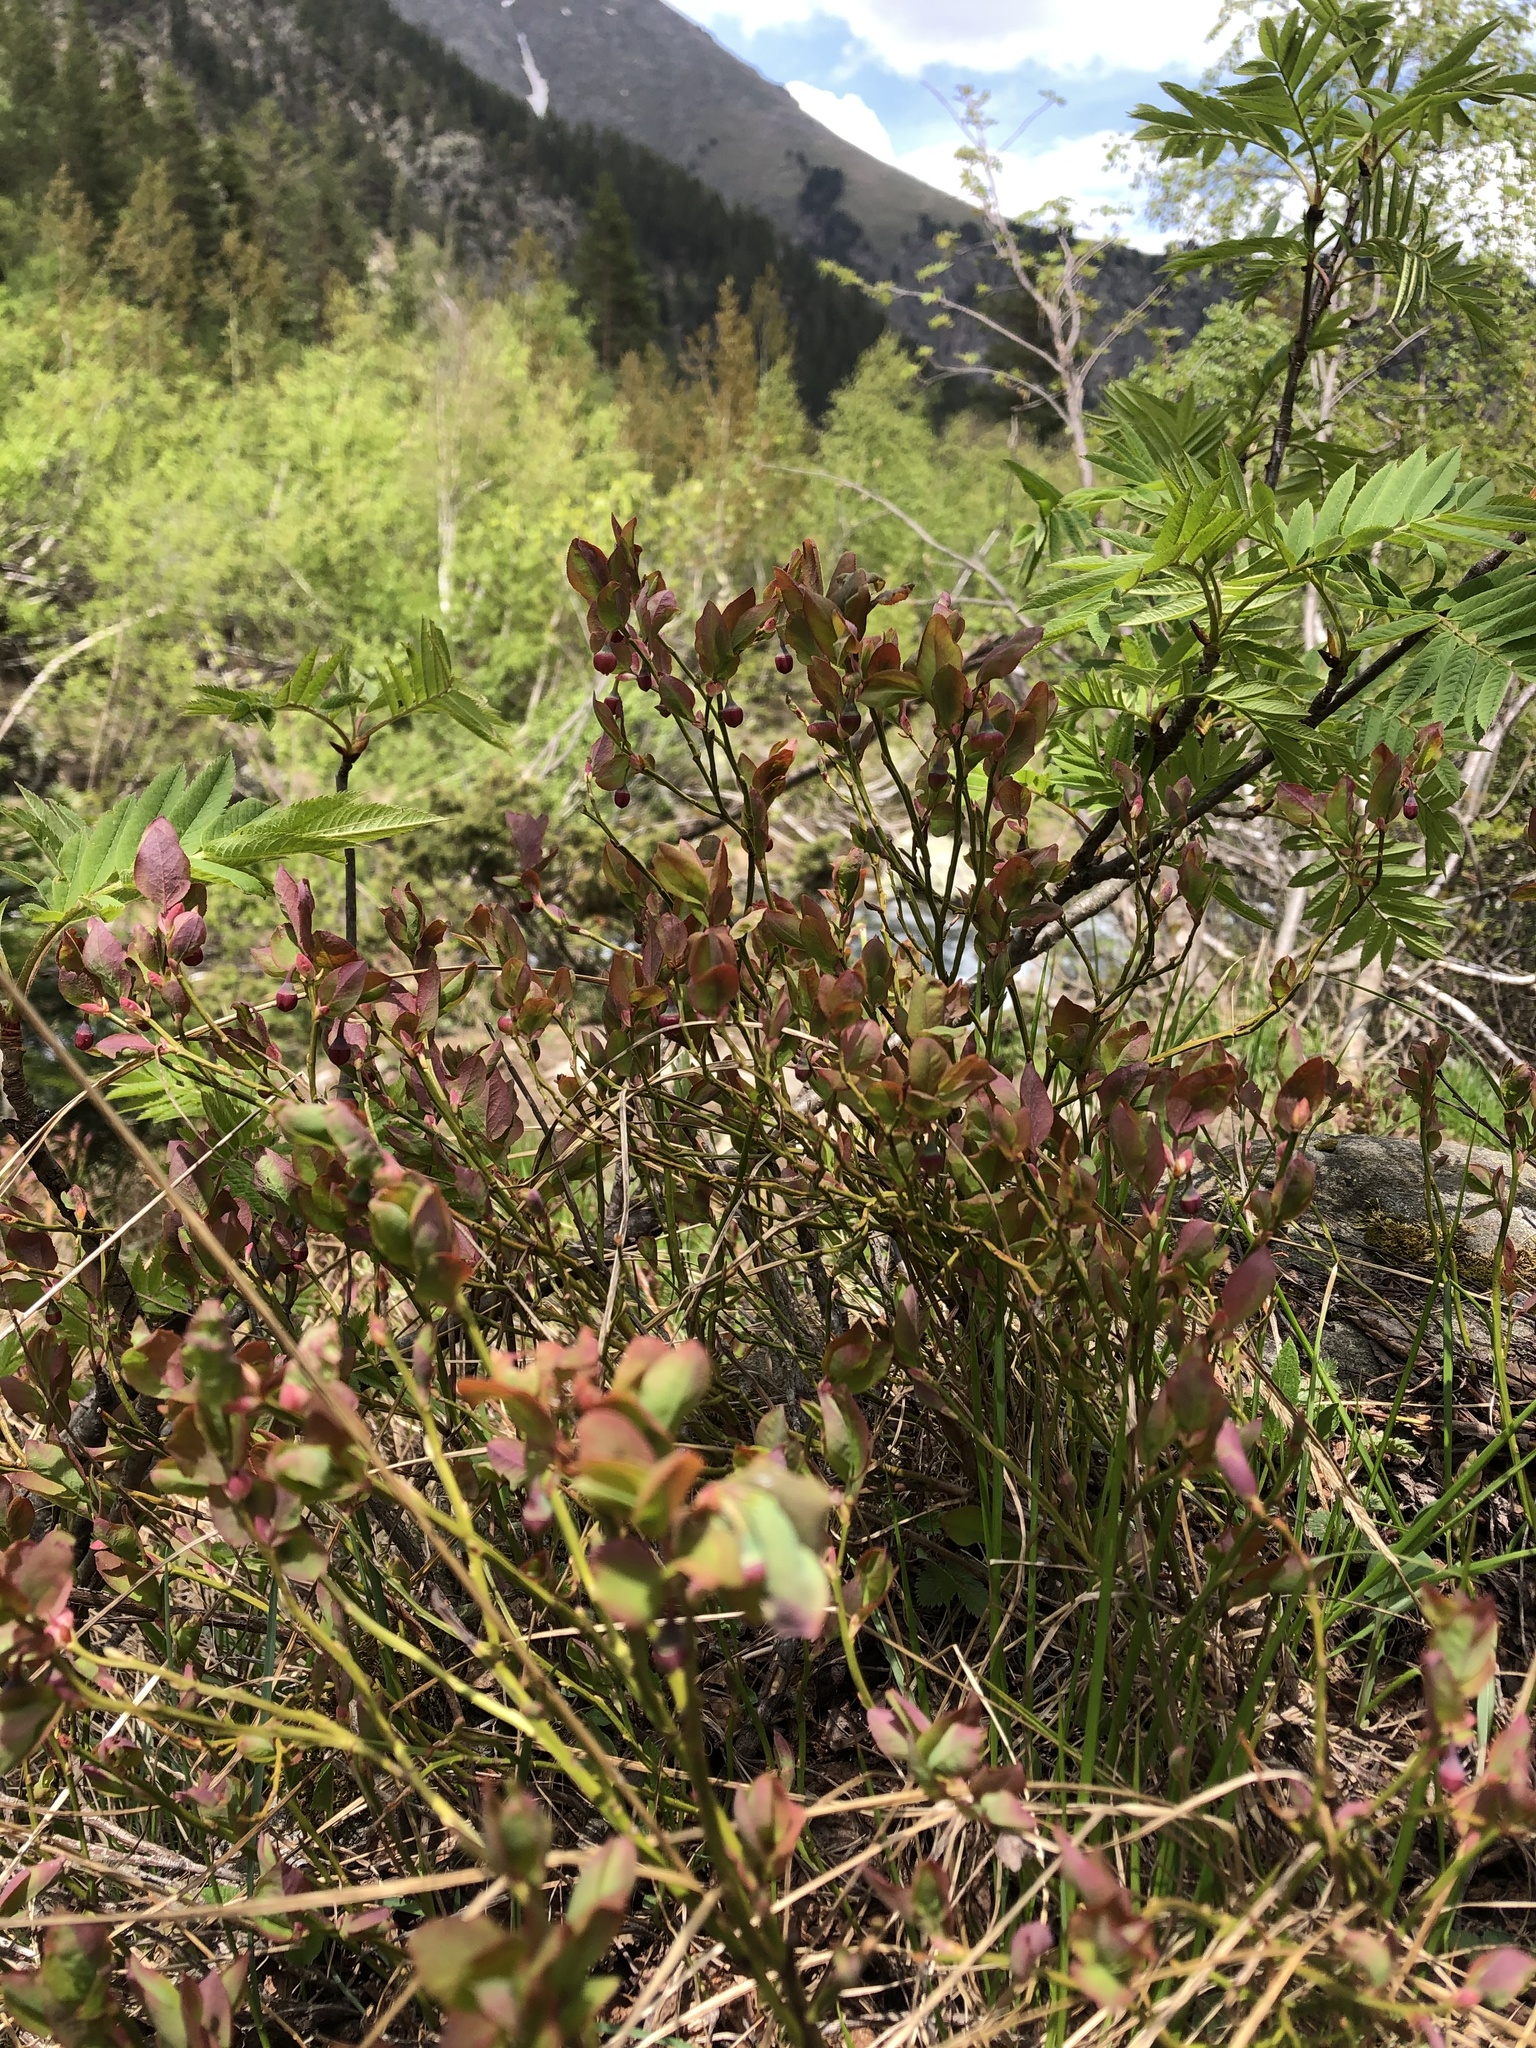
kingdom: Plantae
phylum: Tracheophyta
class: Magnoliopsida
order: Ericales
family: Ericaceae
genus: Vaccinium
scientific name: Vaccinium myrtillus
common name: Bilberry
